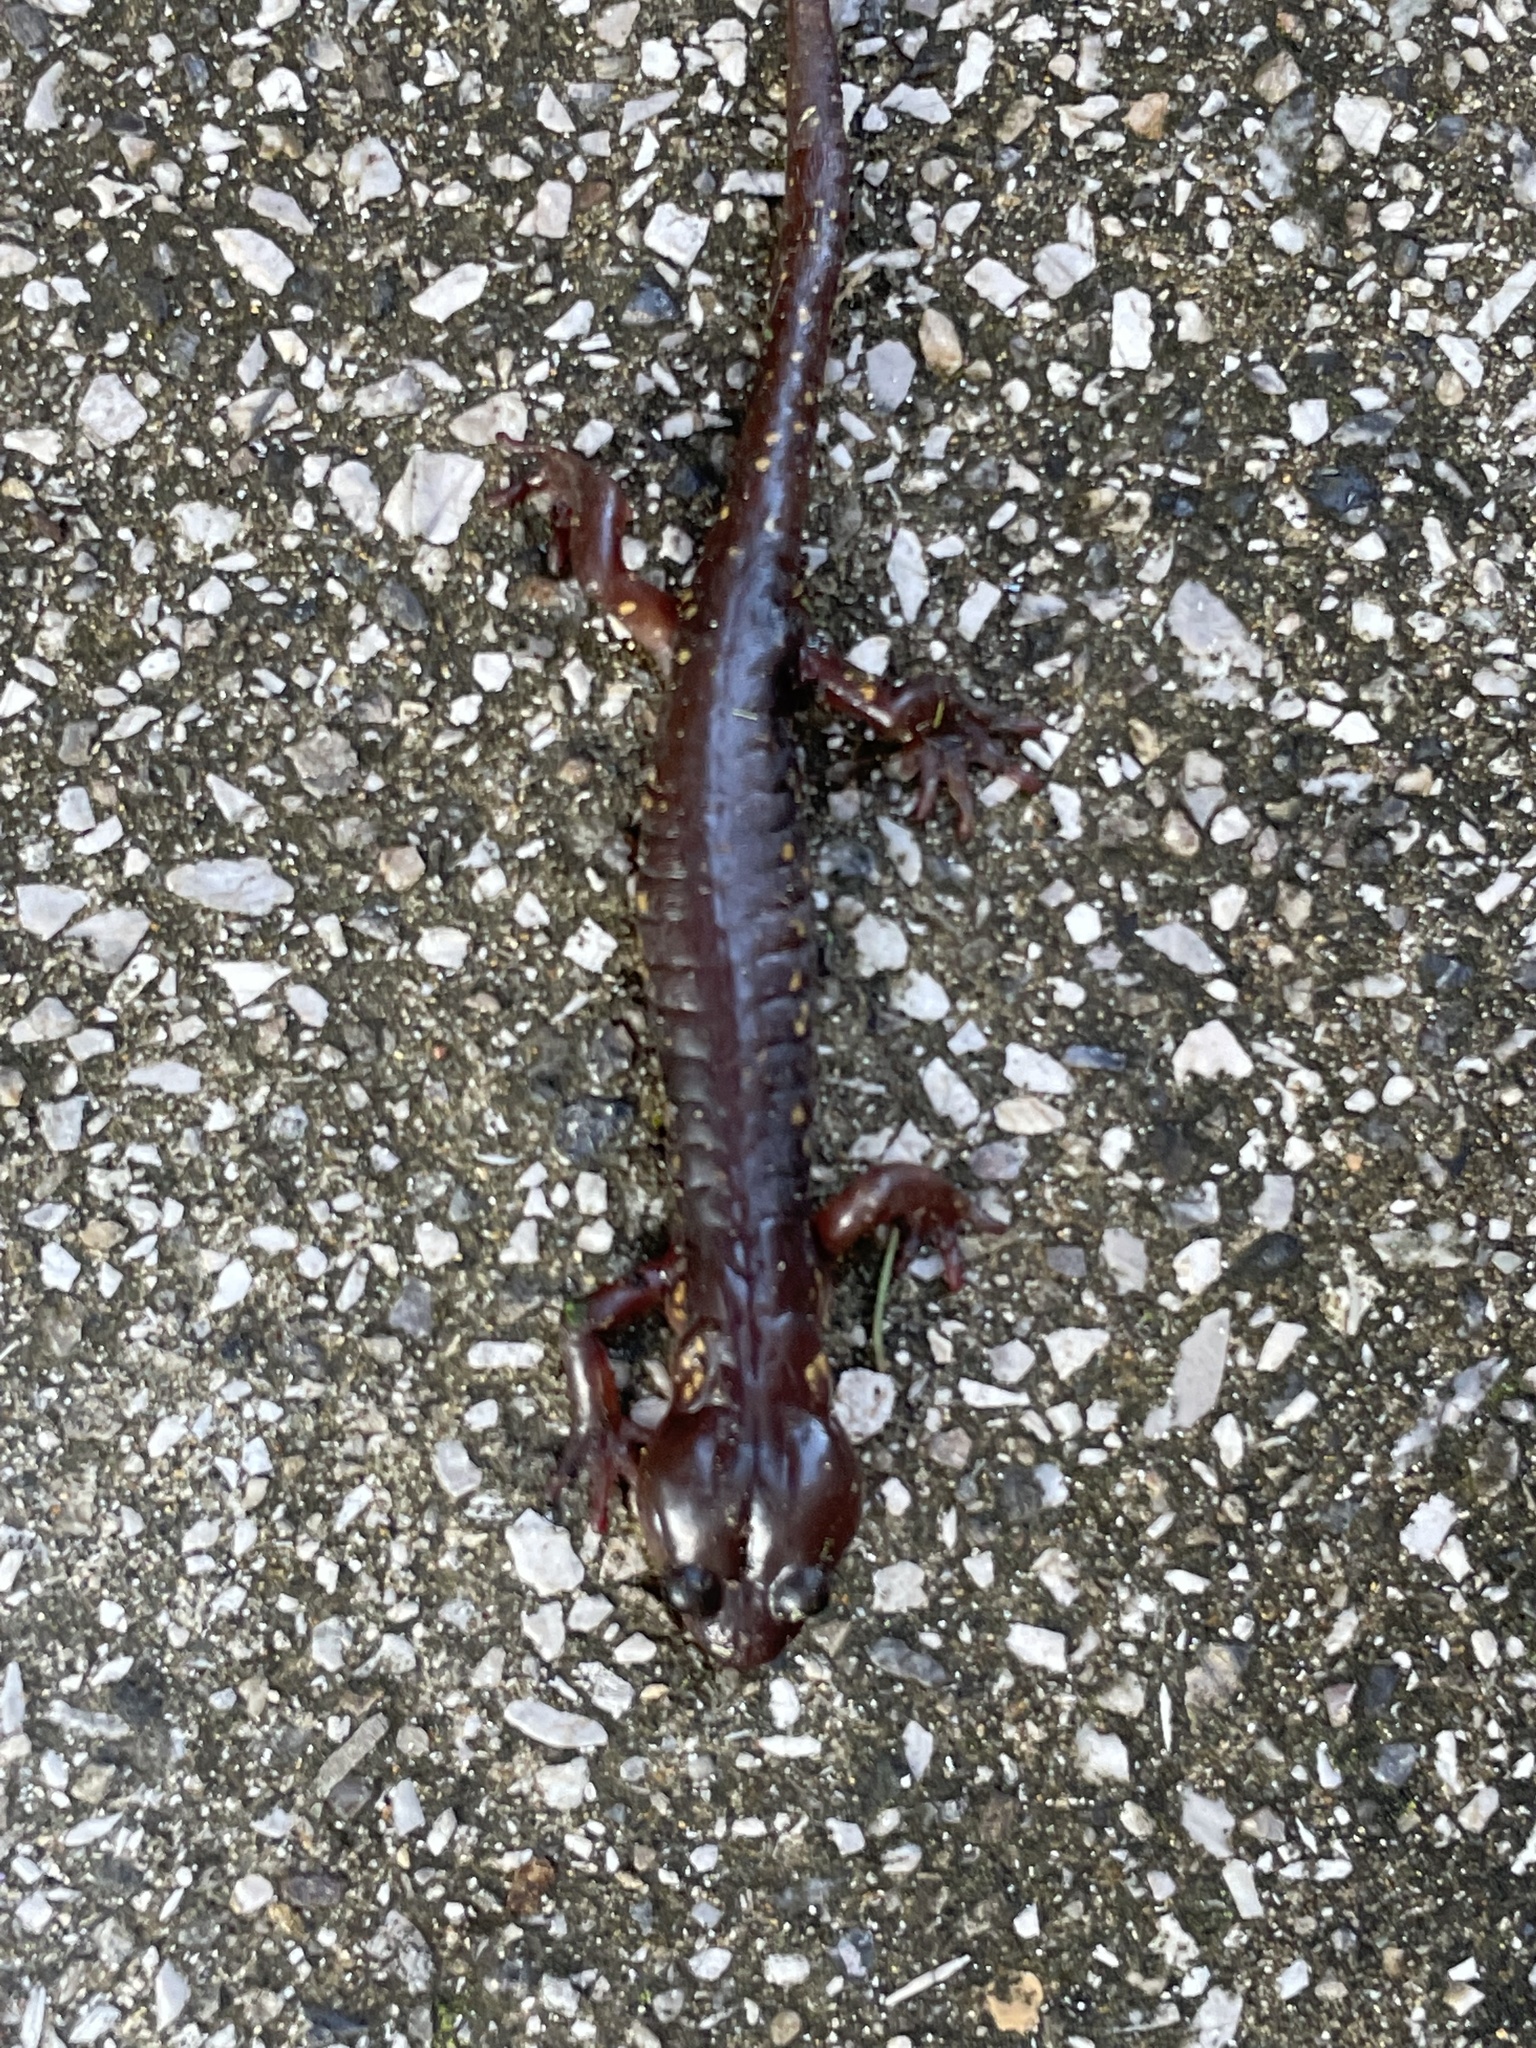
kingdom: Animalia
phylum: Chordata
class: Amphibia
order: Caudata
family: Plethodontidae
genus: Aneides
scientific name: Aneides lugubris
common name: Arboreal salamander
